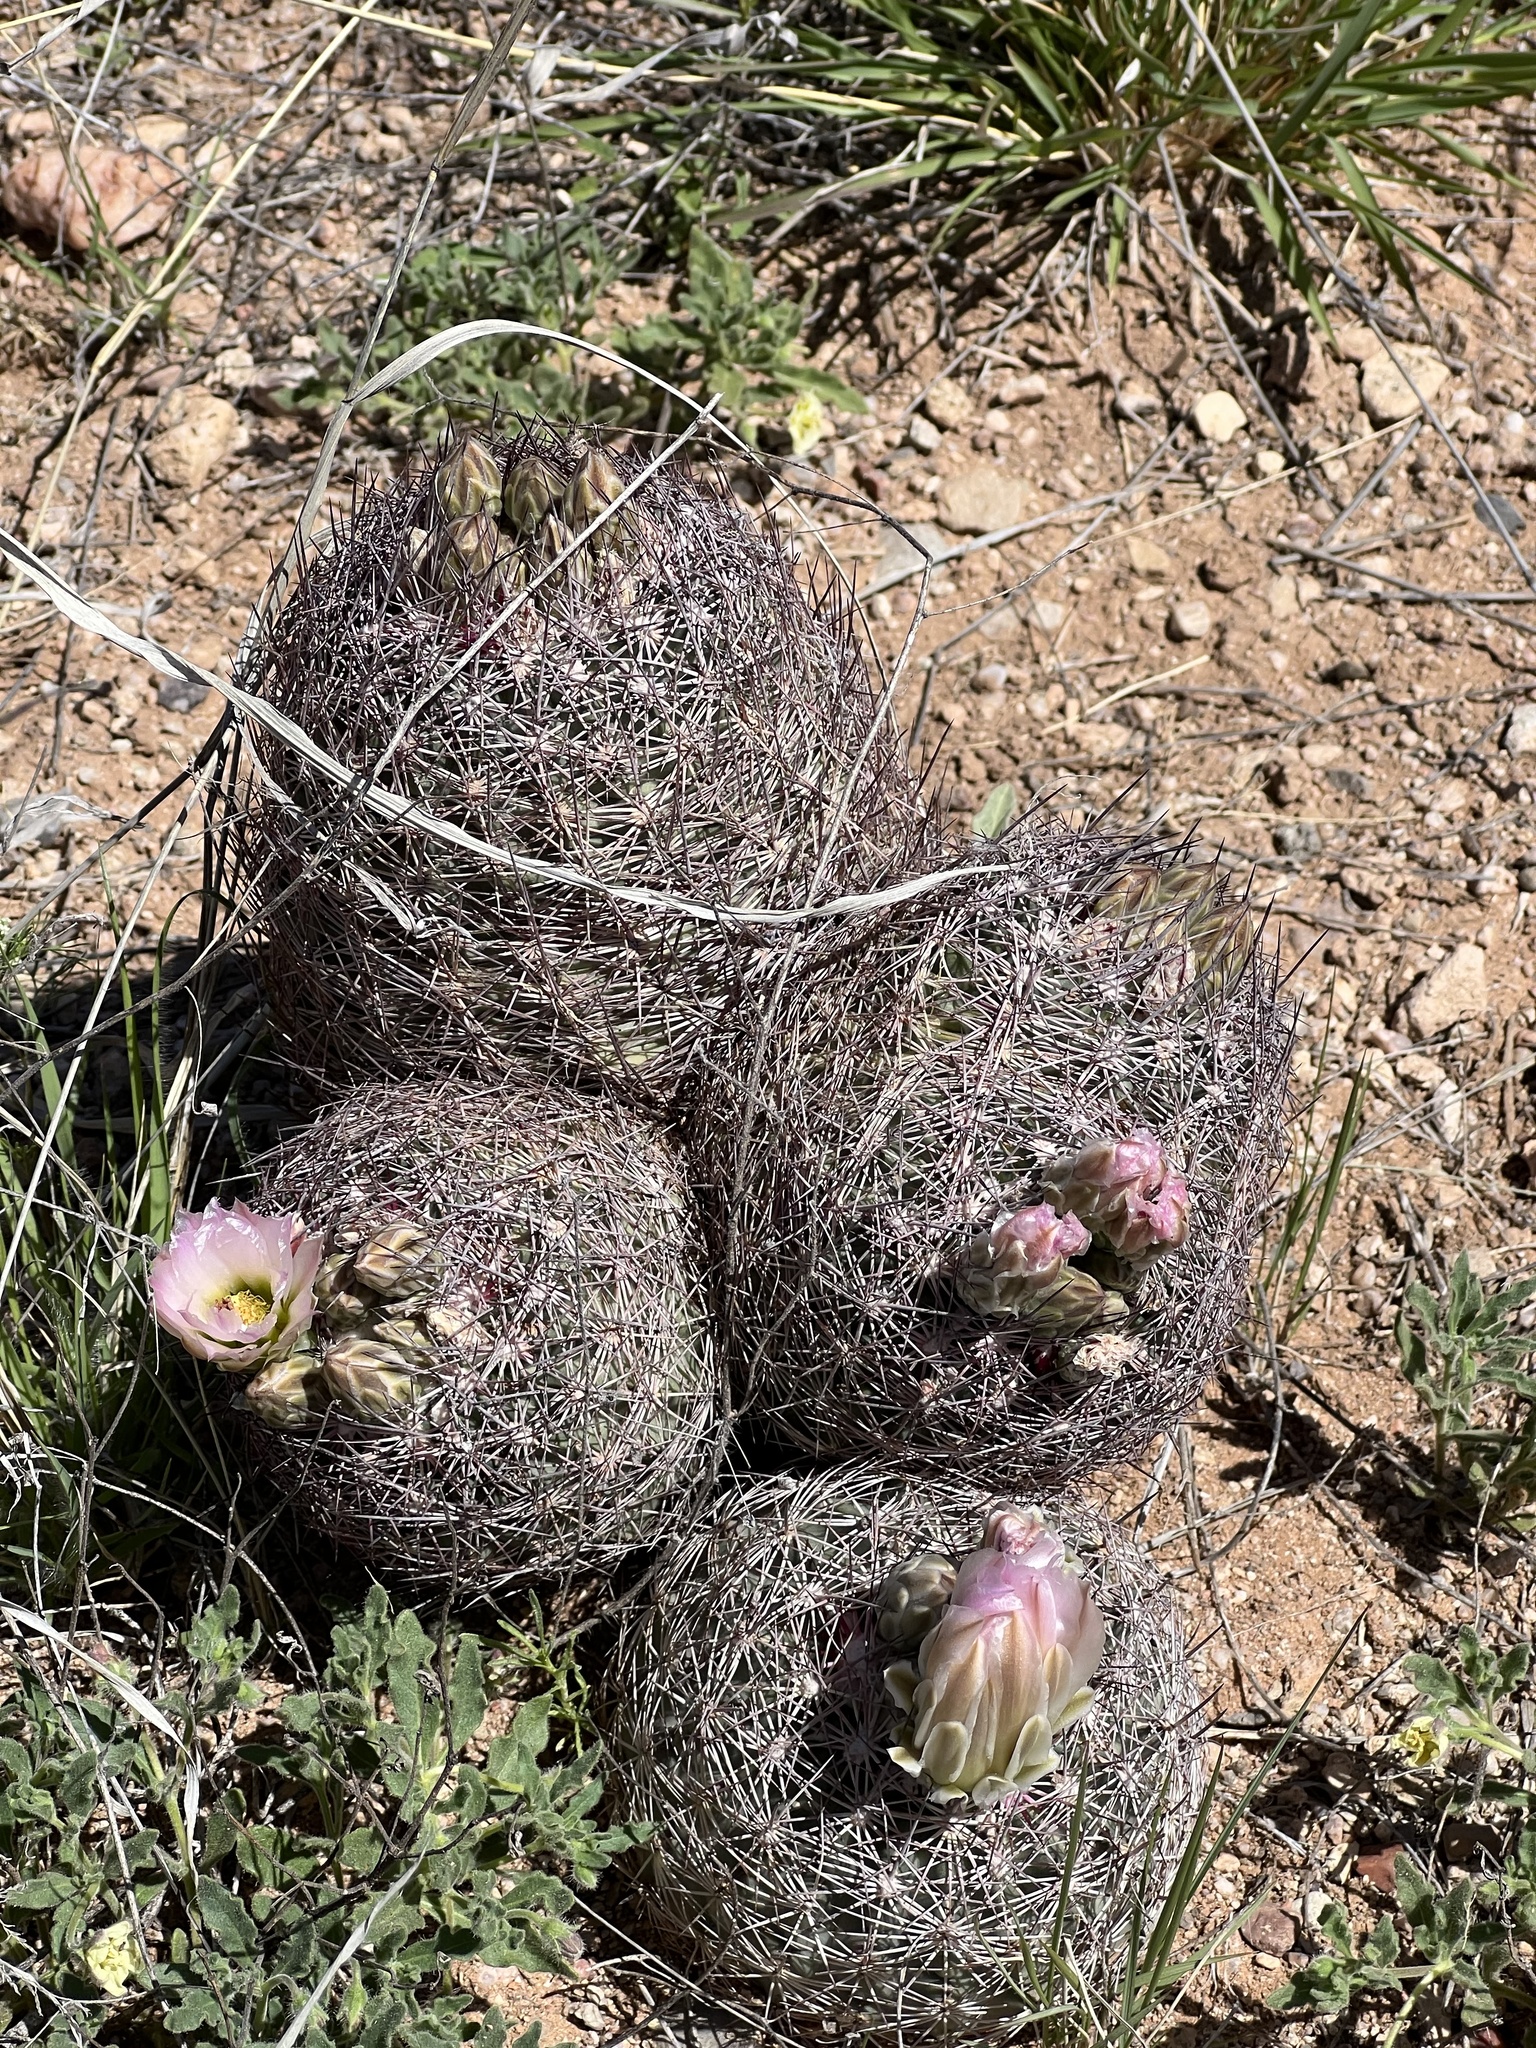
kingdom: Plantae
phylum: Tracheophyta
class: Magnoliopsida
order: Caryophyllales
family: Cactaceae
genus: Sclerocactus
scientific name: Sclerocactus johnsonii
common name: Eight-spine fishhook cactus
